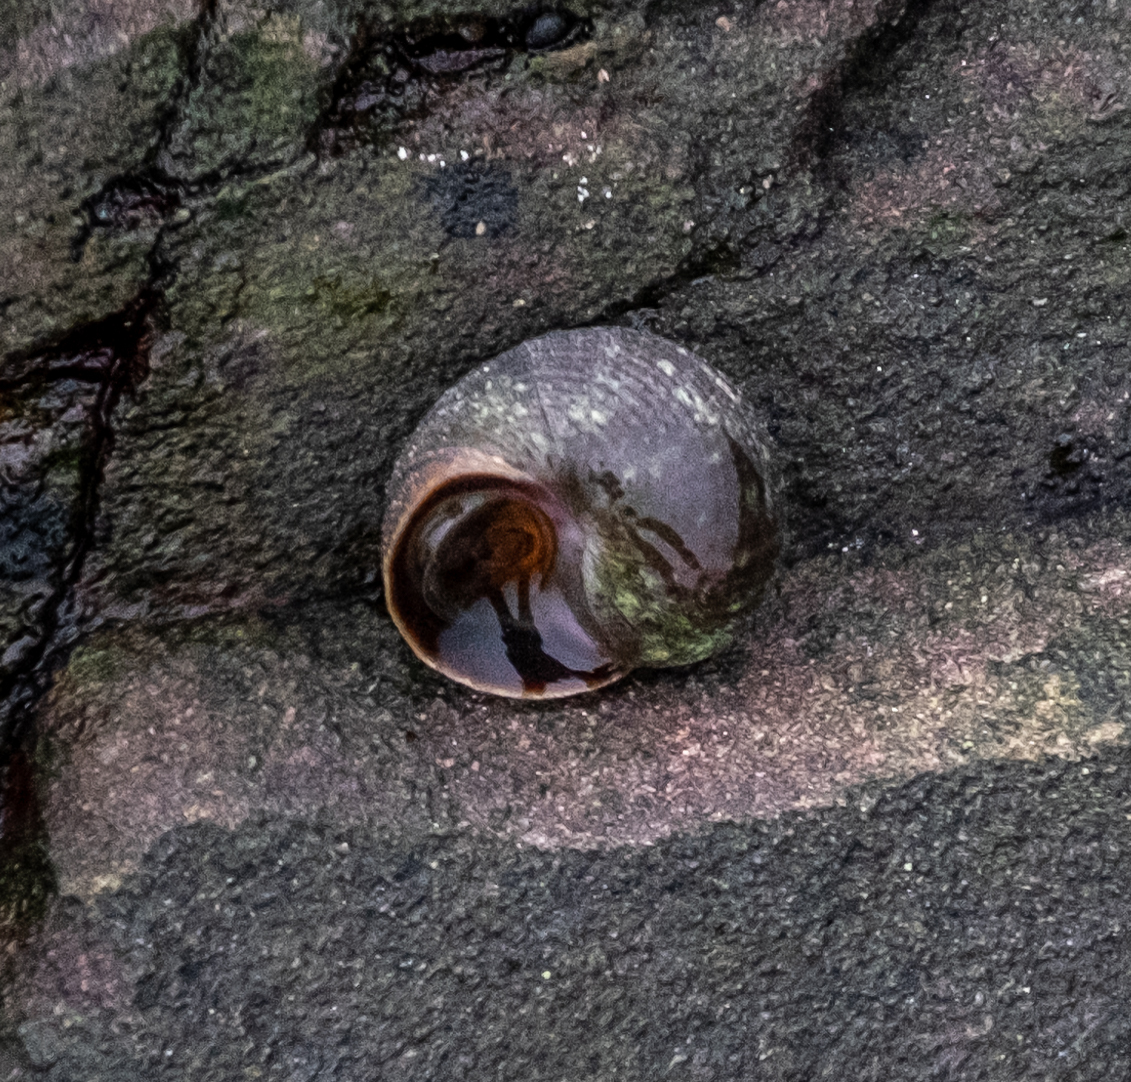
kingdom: Animalia
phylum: Mollusca
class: Gastropoda
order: Littorinimorpha
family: Littorinidae
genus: Littorina
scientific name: Littorina saxatilis
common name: Black-lined periwinkle
